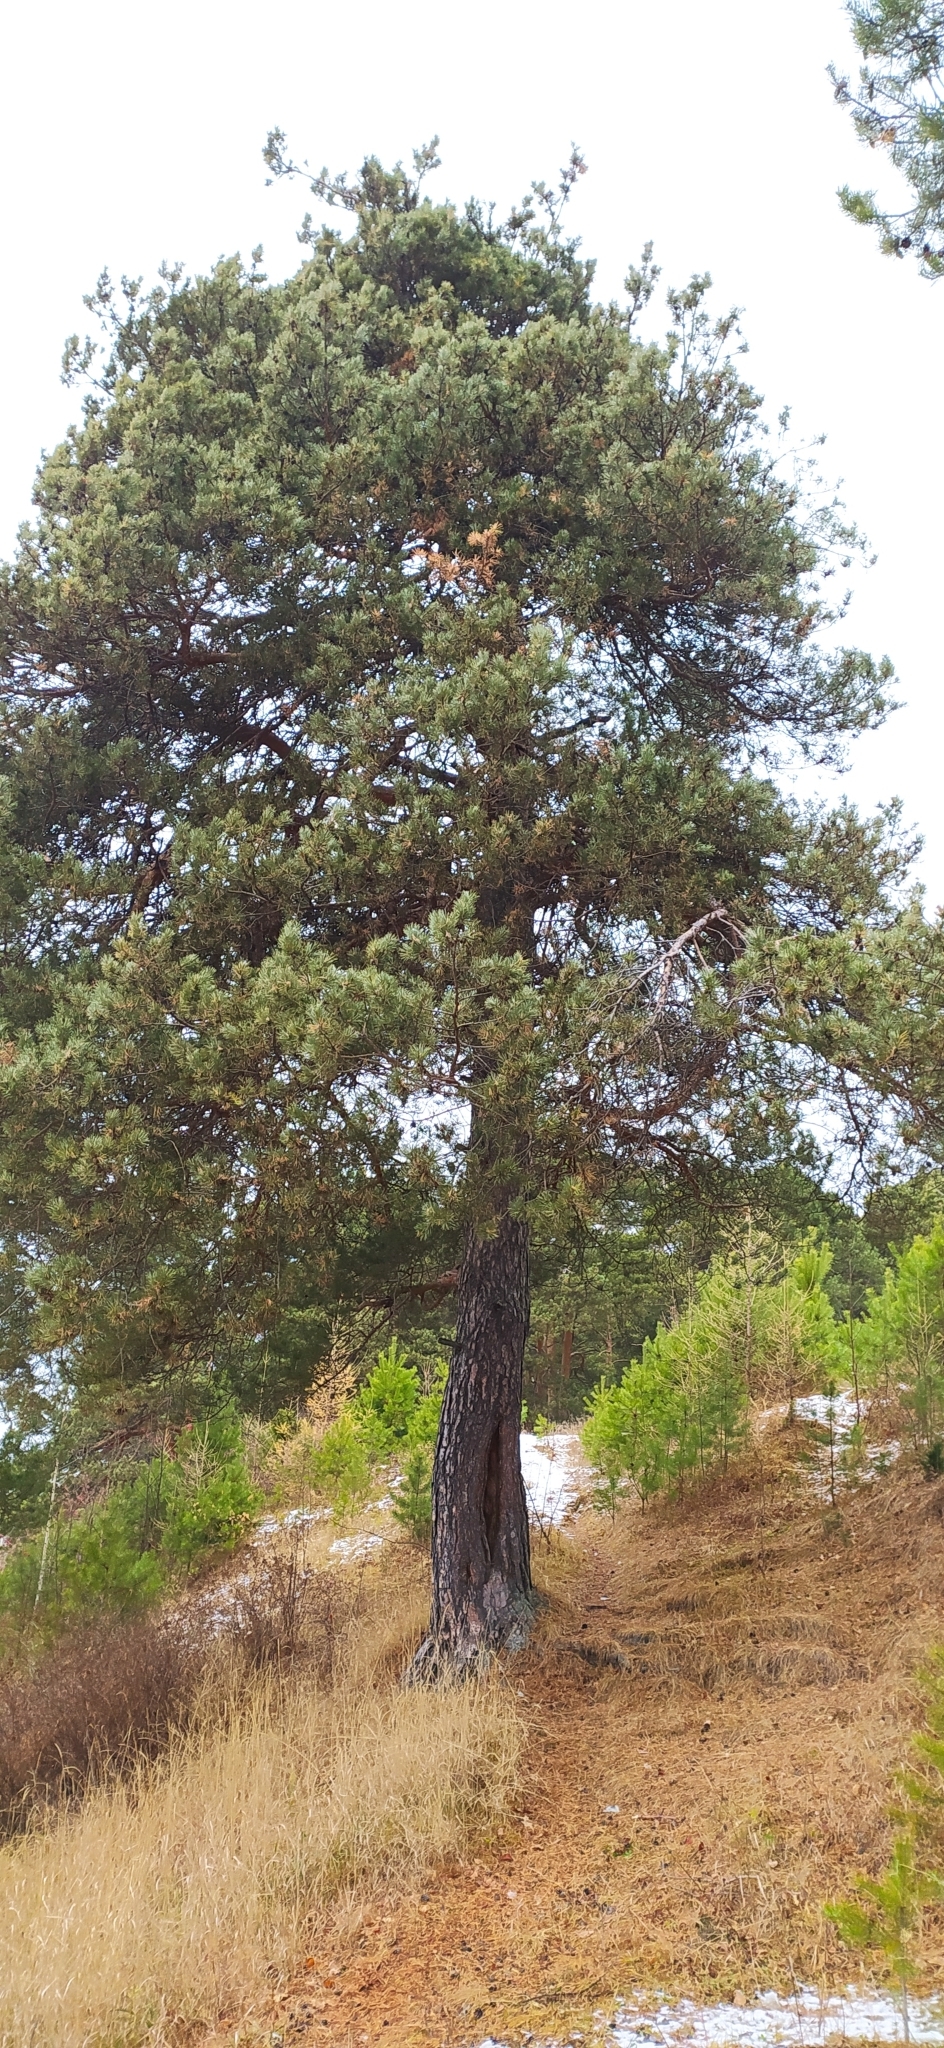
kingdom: Plantae
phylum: Tracheophyta
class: Pinopsida
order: Pinales
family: Pinaceae
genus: Pinus
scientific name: Pinus sylvestris
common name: Scots pine
